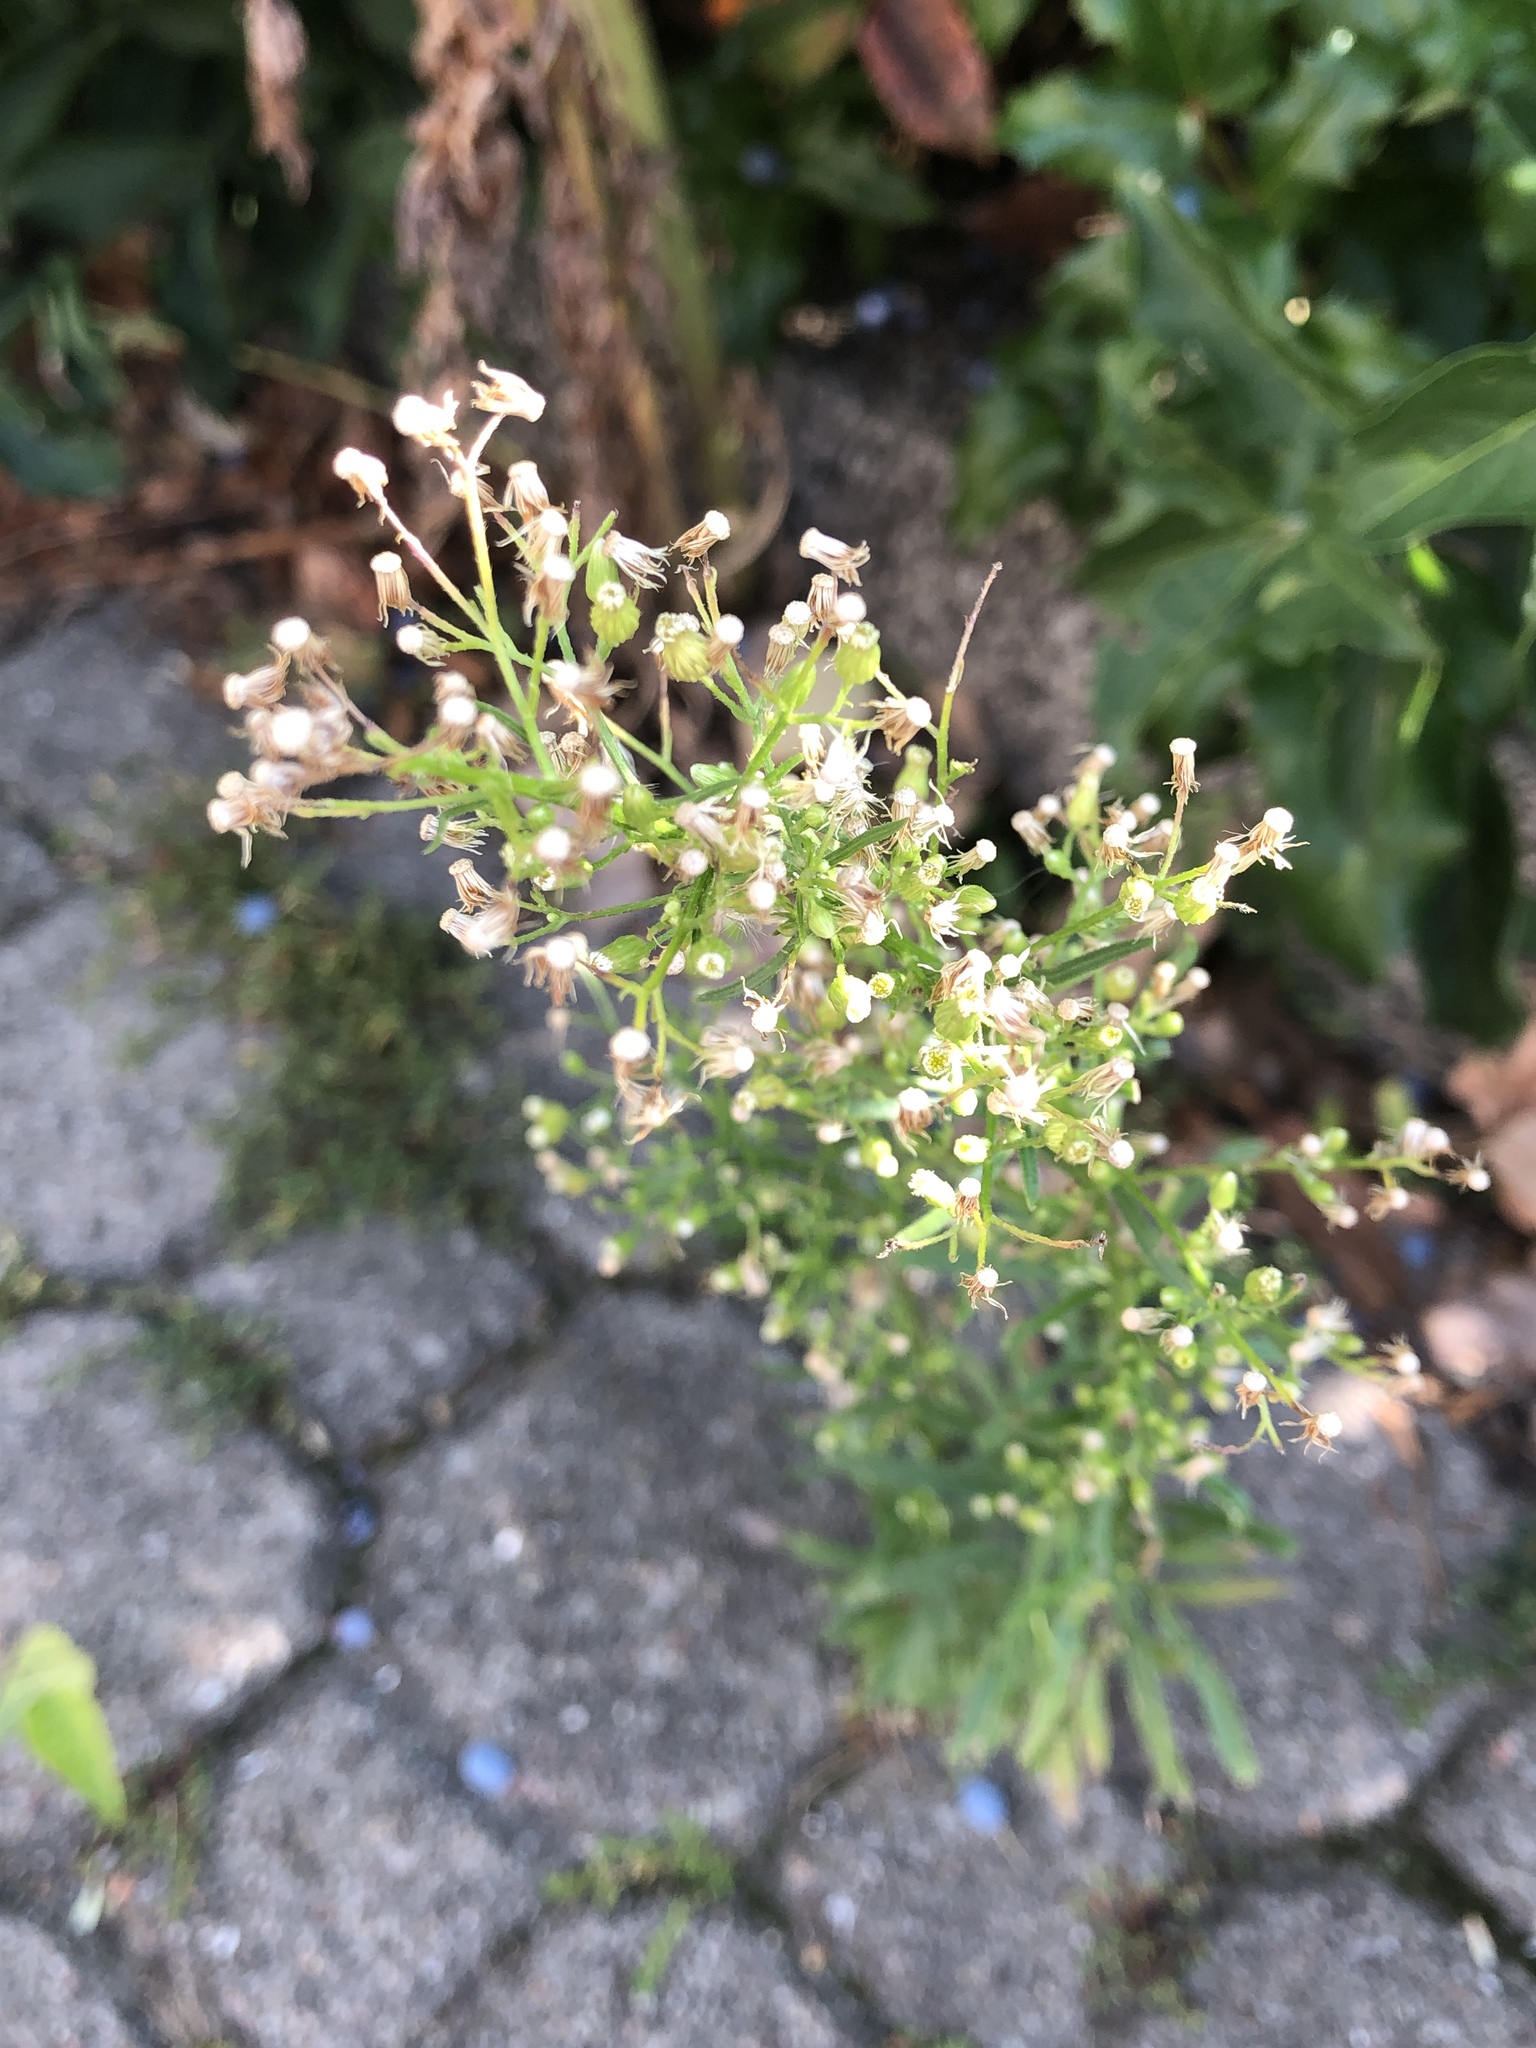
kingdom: Plantae
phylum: Tracheophyta
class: Magnoliopsida
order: Asterales
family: Asteraceae
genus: Erigeron
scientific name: Erigeron canadensis
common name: Canadian fleabane
